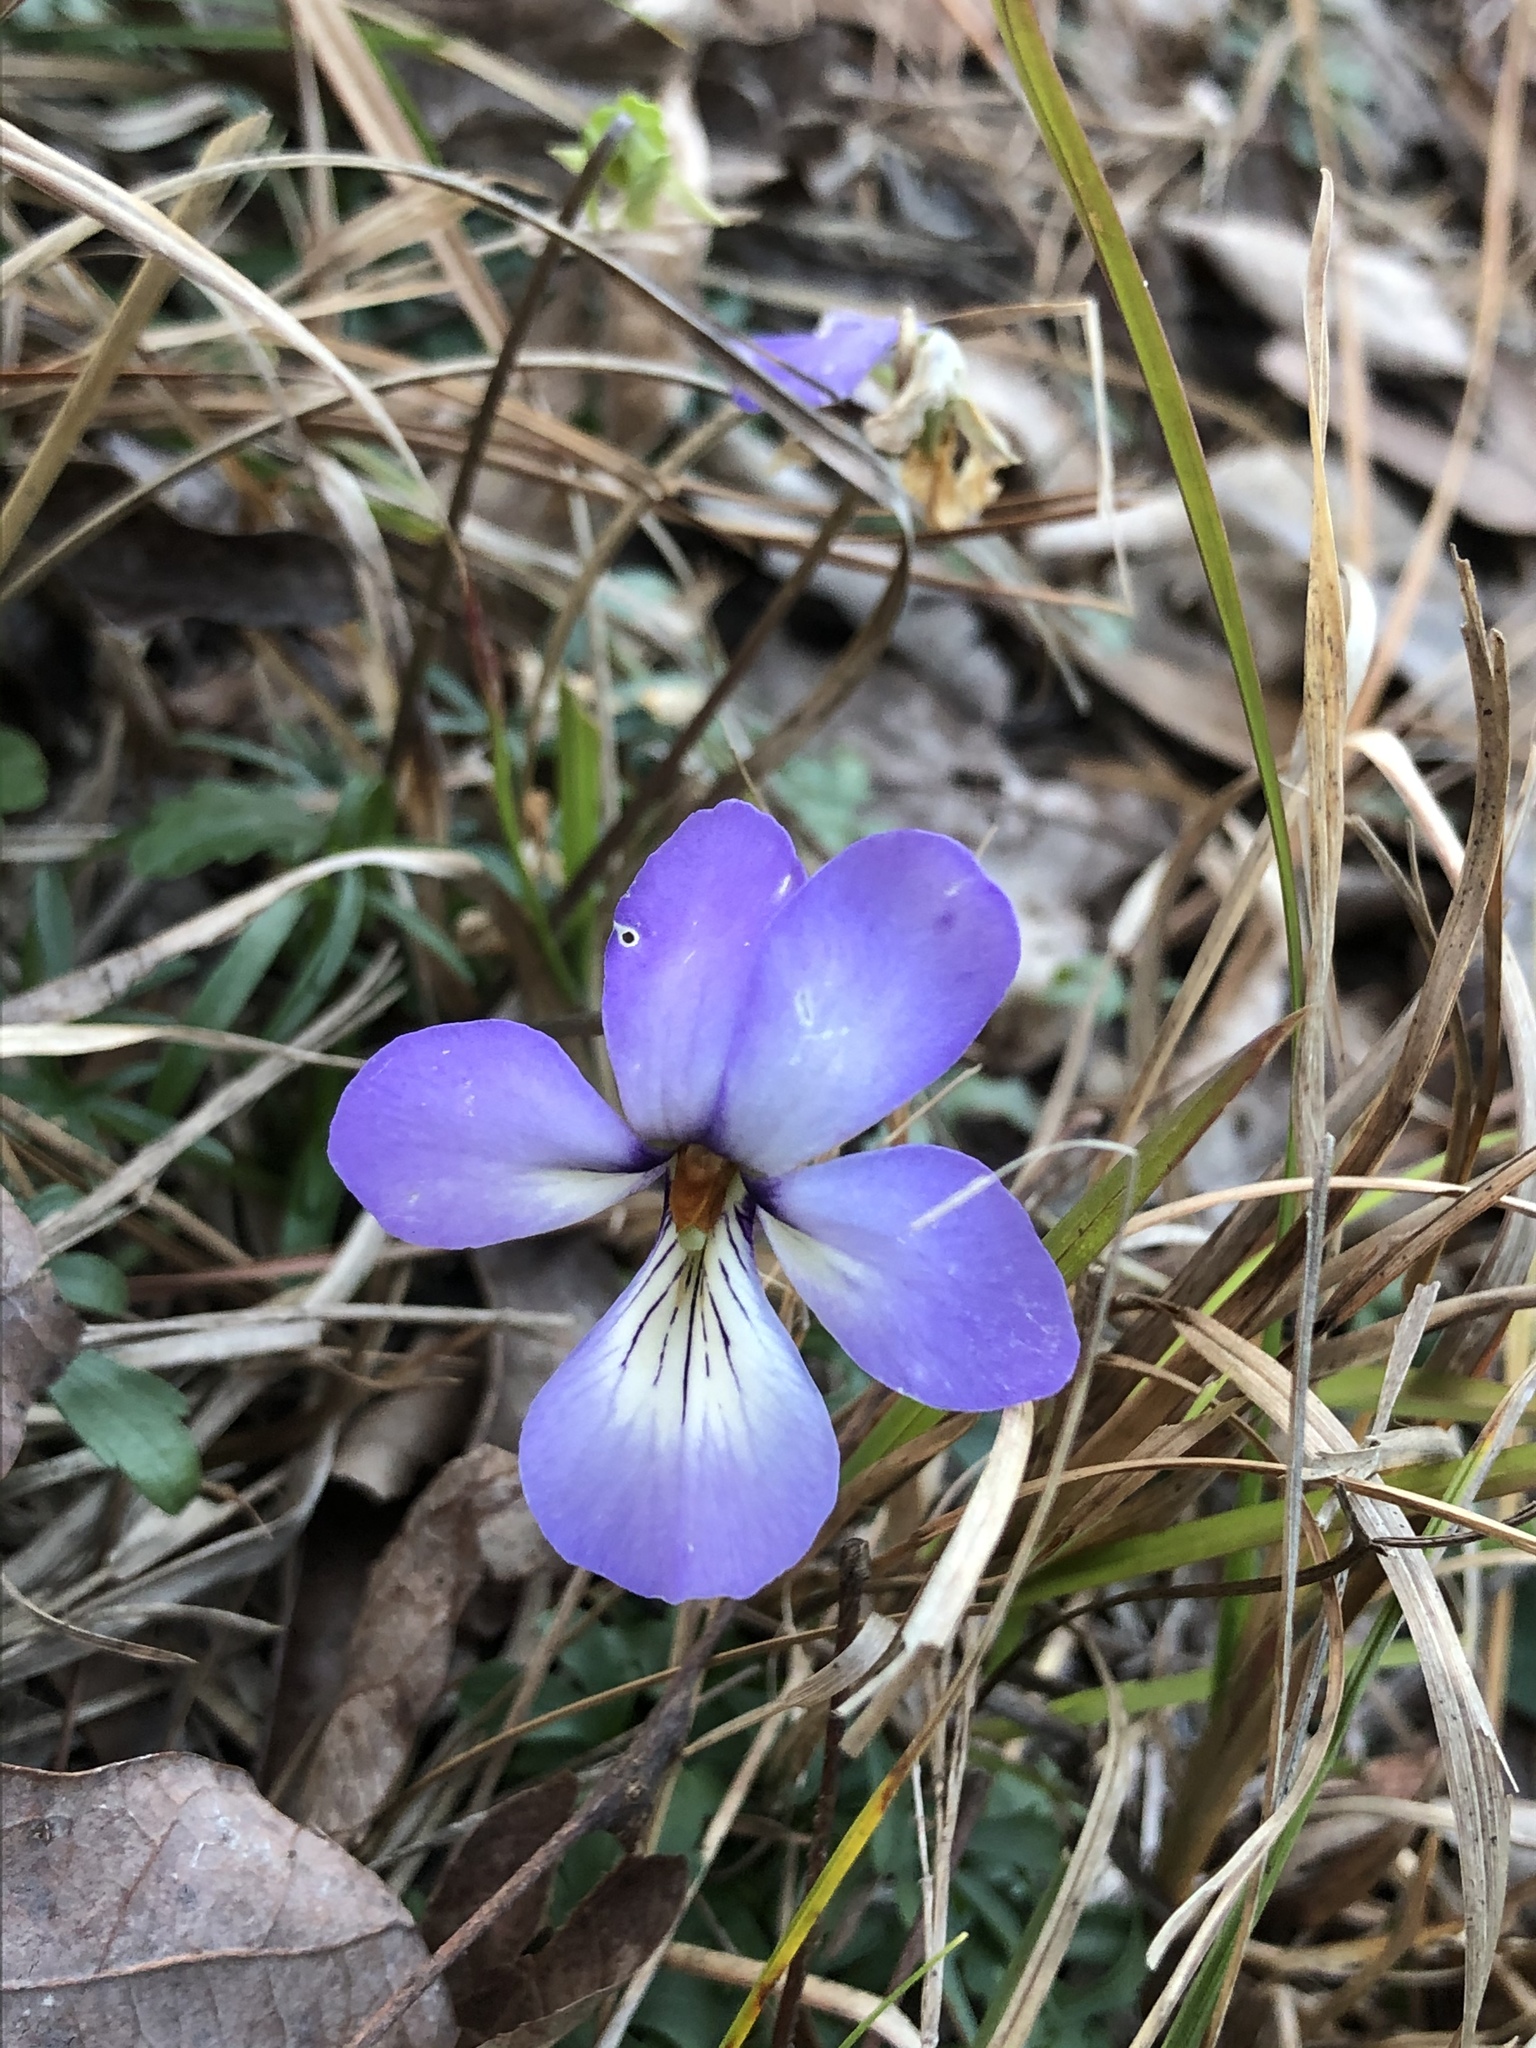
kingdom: Plantae
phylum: Tracheophyta
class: Magnoliopsida
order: Malpighiales
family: Violaceae
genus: Viola
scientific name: Viola pedata
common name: Pansy violet
